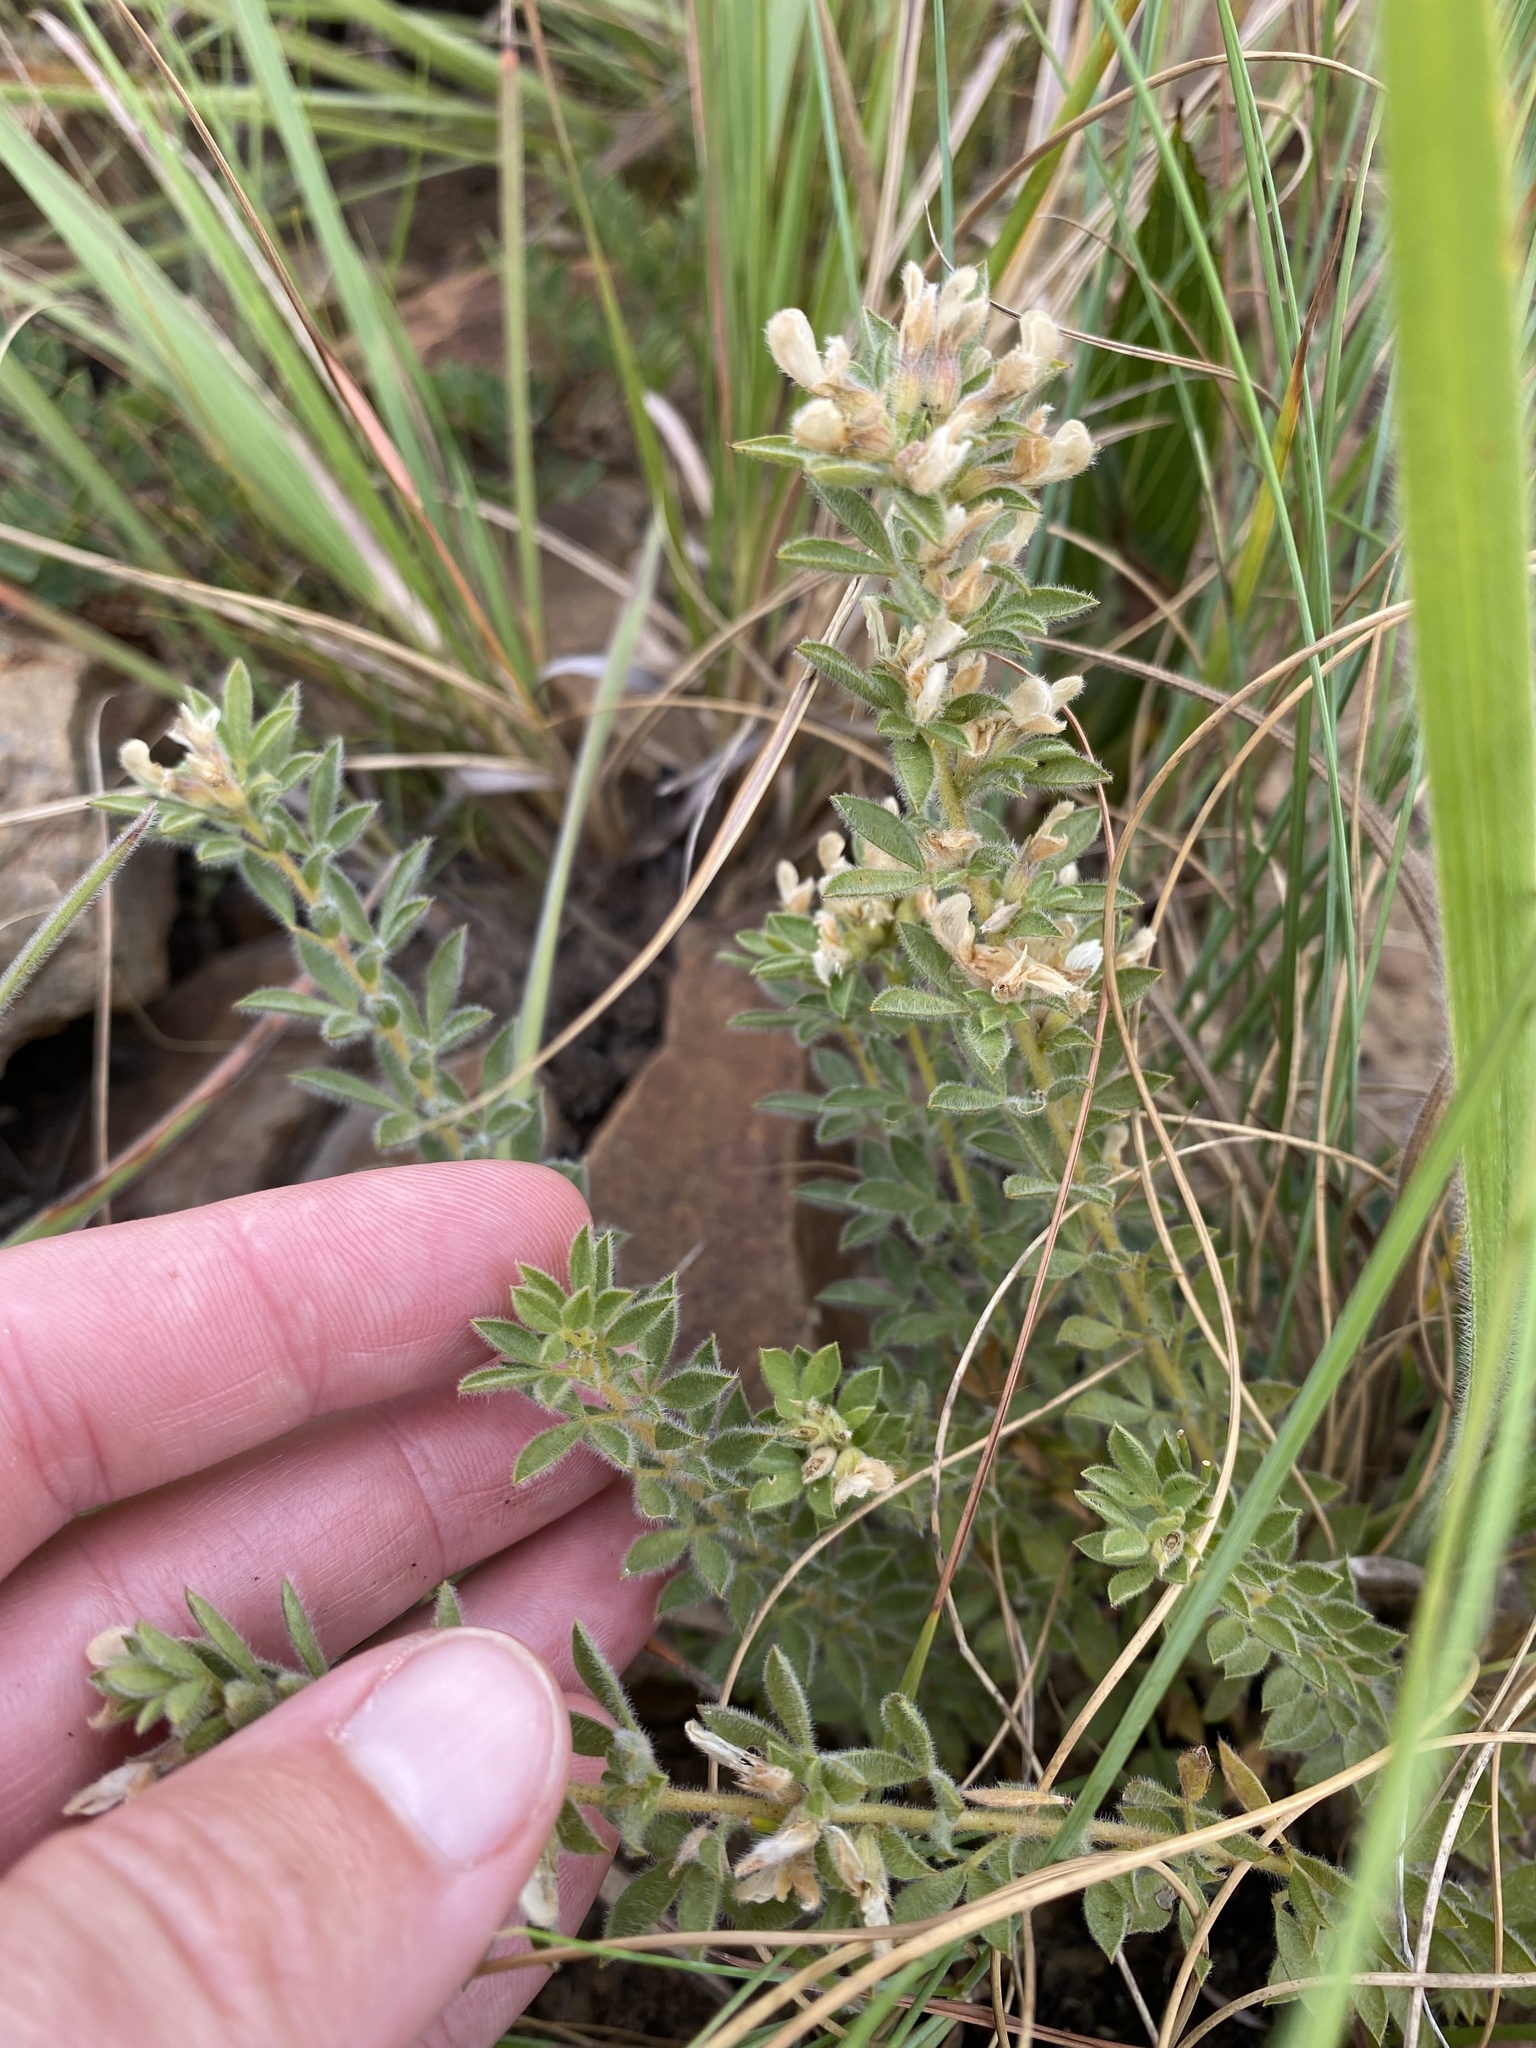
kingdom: Plantae
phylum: Tracheophyta
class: Magnoliopsida
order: Fabales
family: Fabaceae
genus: Leobordea
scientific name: Leobordea corymbosa
